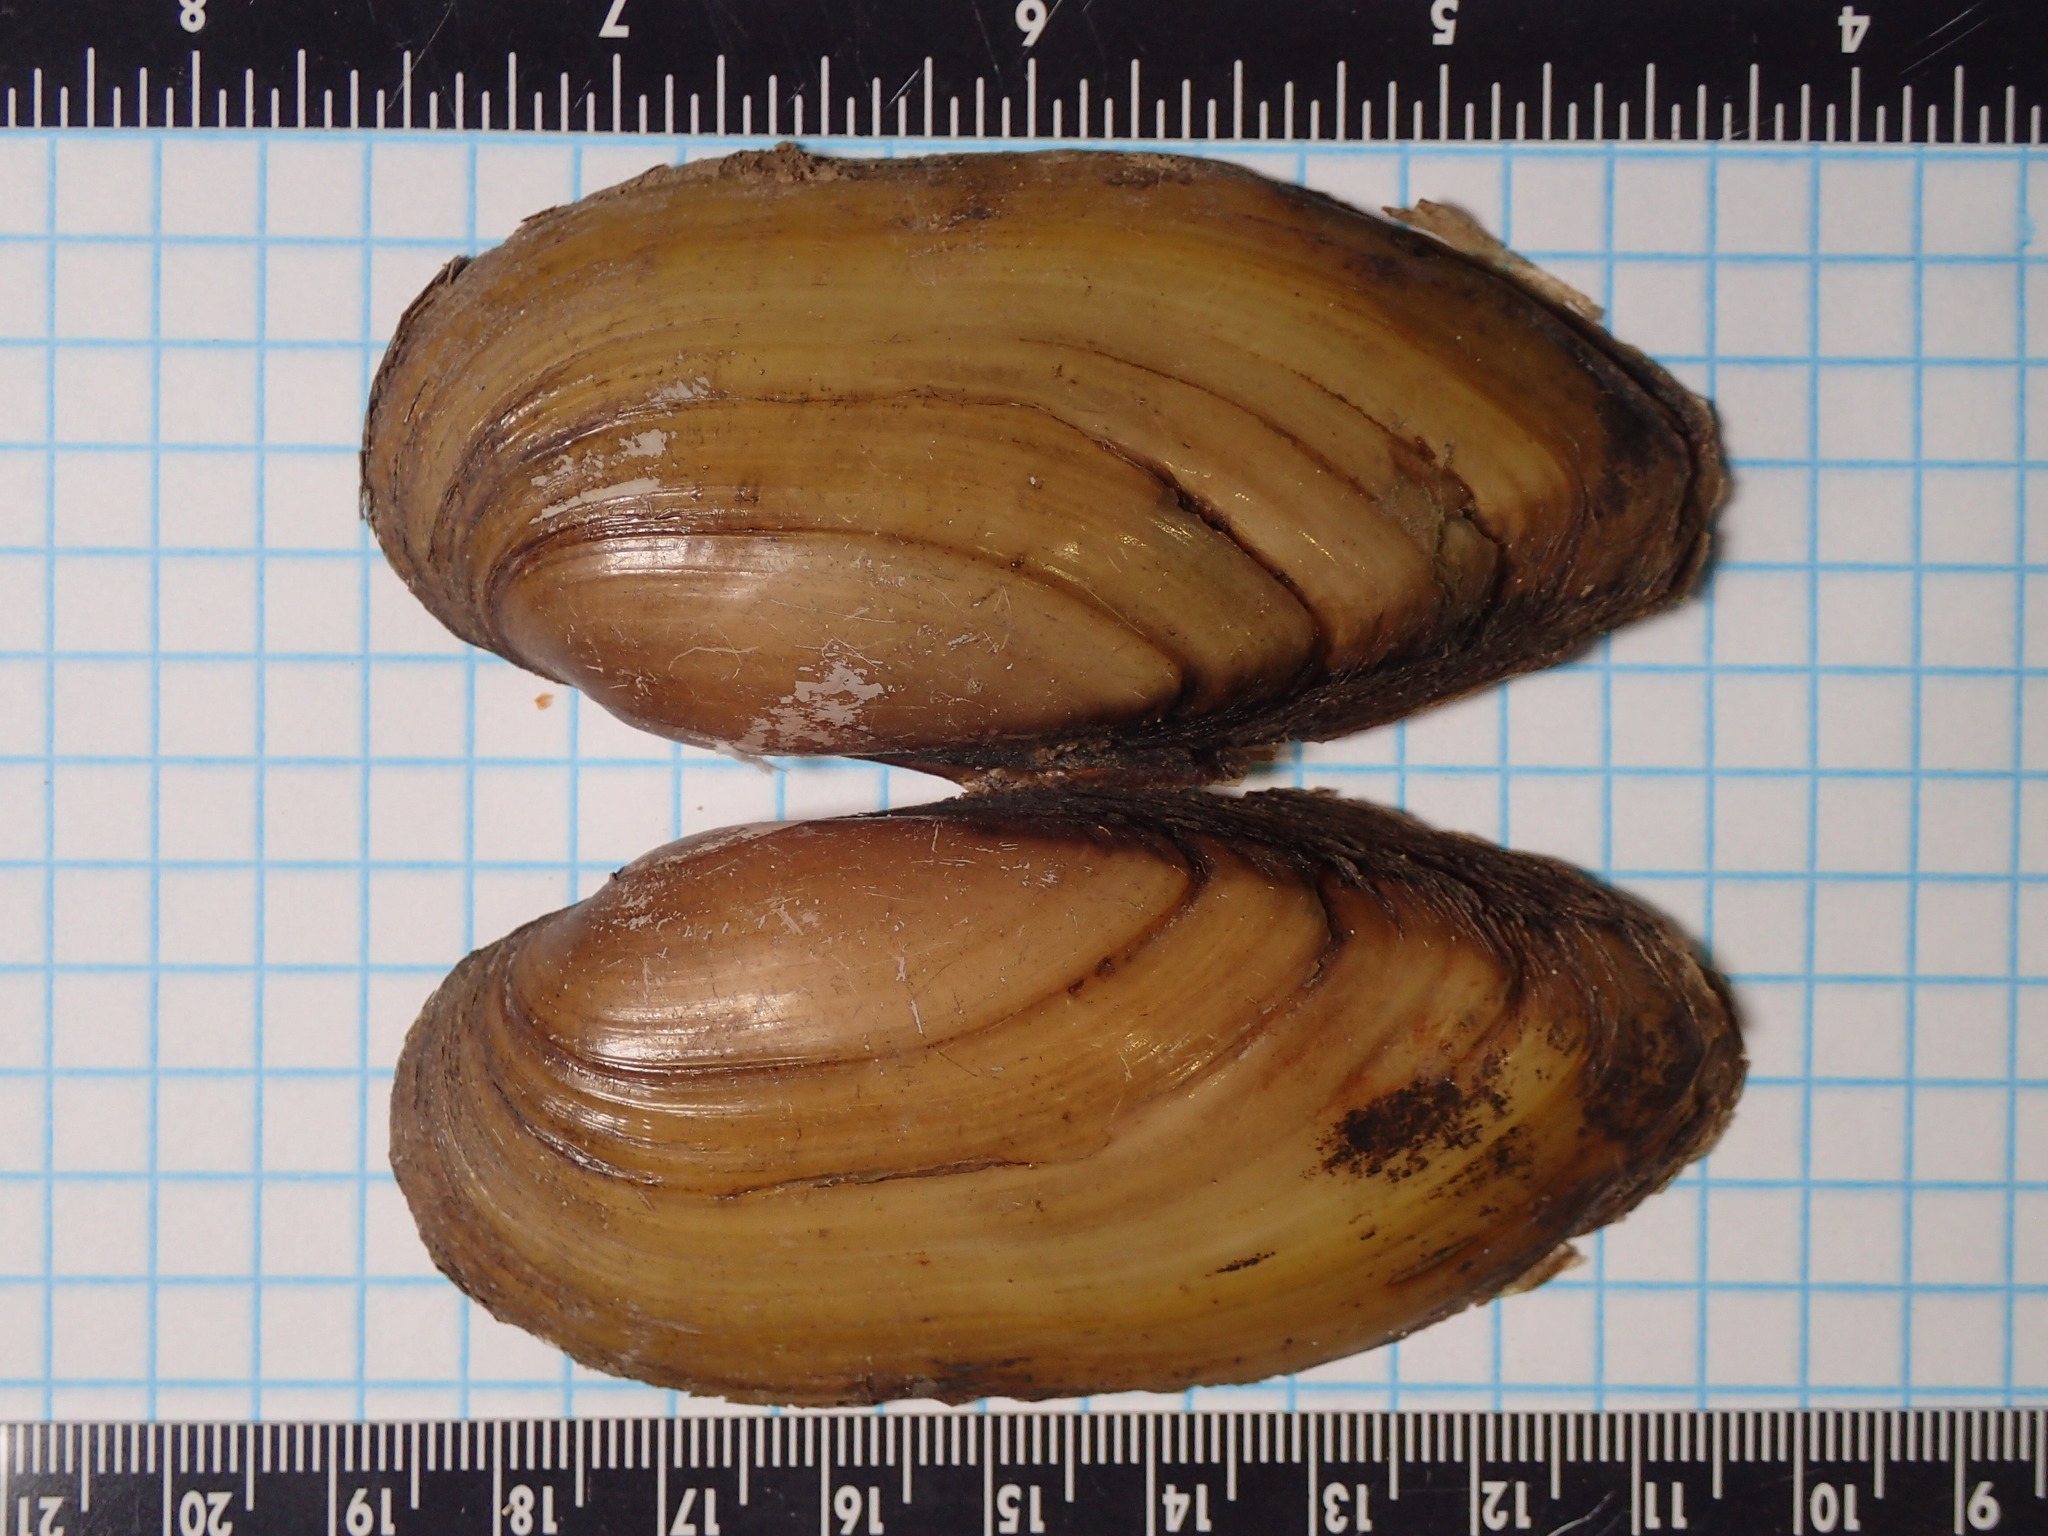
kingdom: Animalia
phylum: Mollusca
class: Bivalvia
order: Unionida
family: Unionidae
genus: Lampsilis
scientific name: Lampsilis teres
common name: Yellow sandshell
